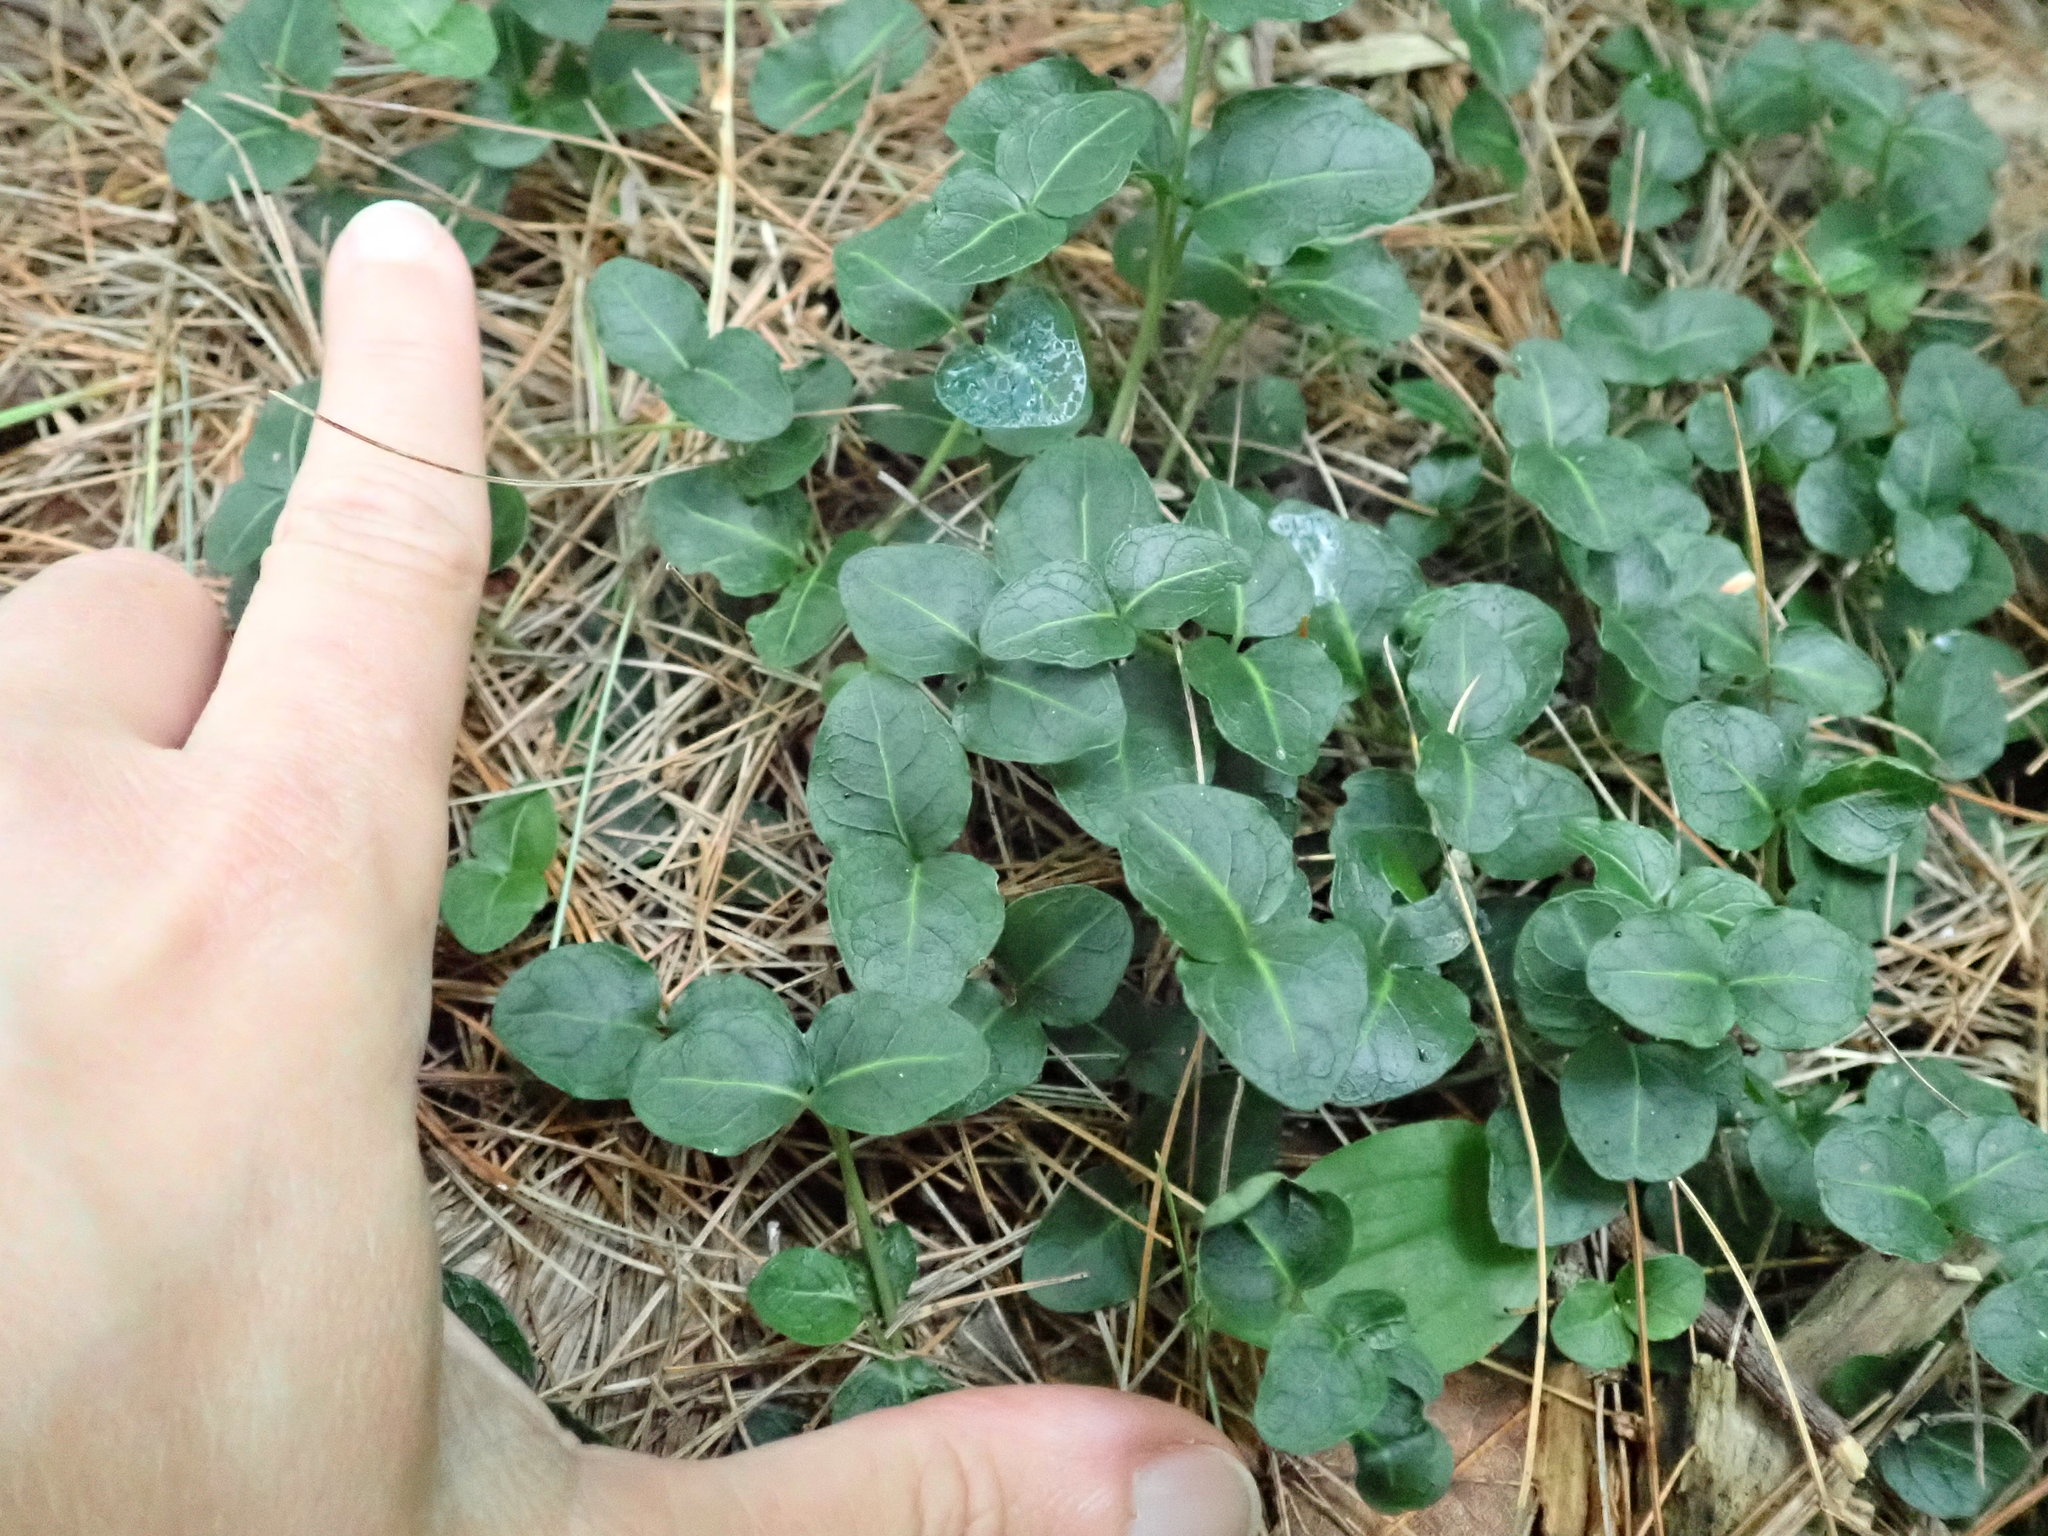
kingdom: Plantae
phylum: Tracheophyta
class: Magnoliopsida
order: Gentianales
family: Rubiaceae
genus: Mitchella
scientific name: Mitchella repens
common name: Partridge-berry
